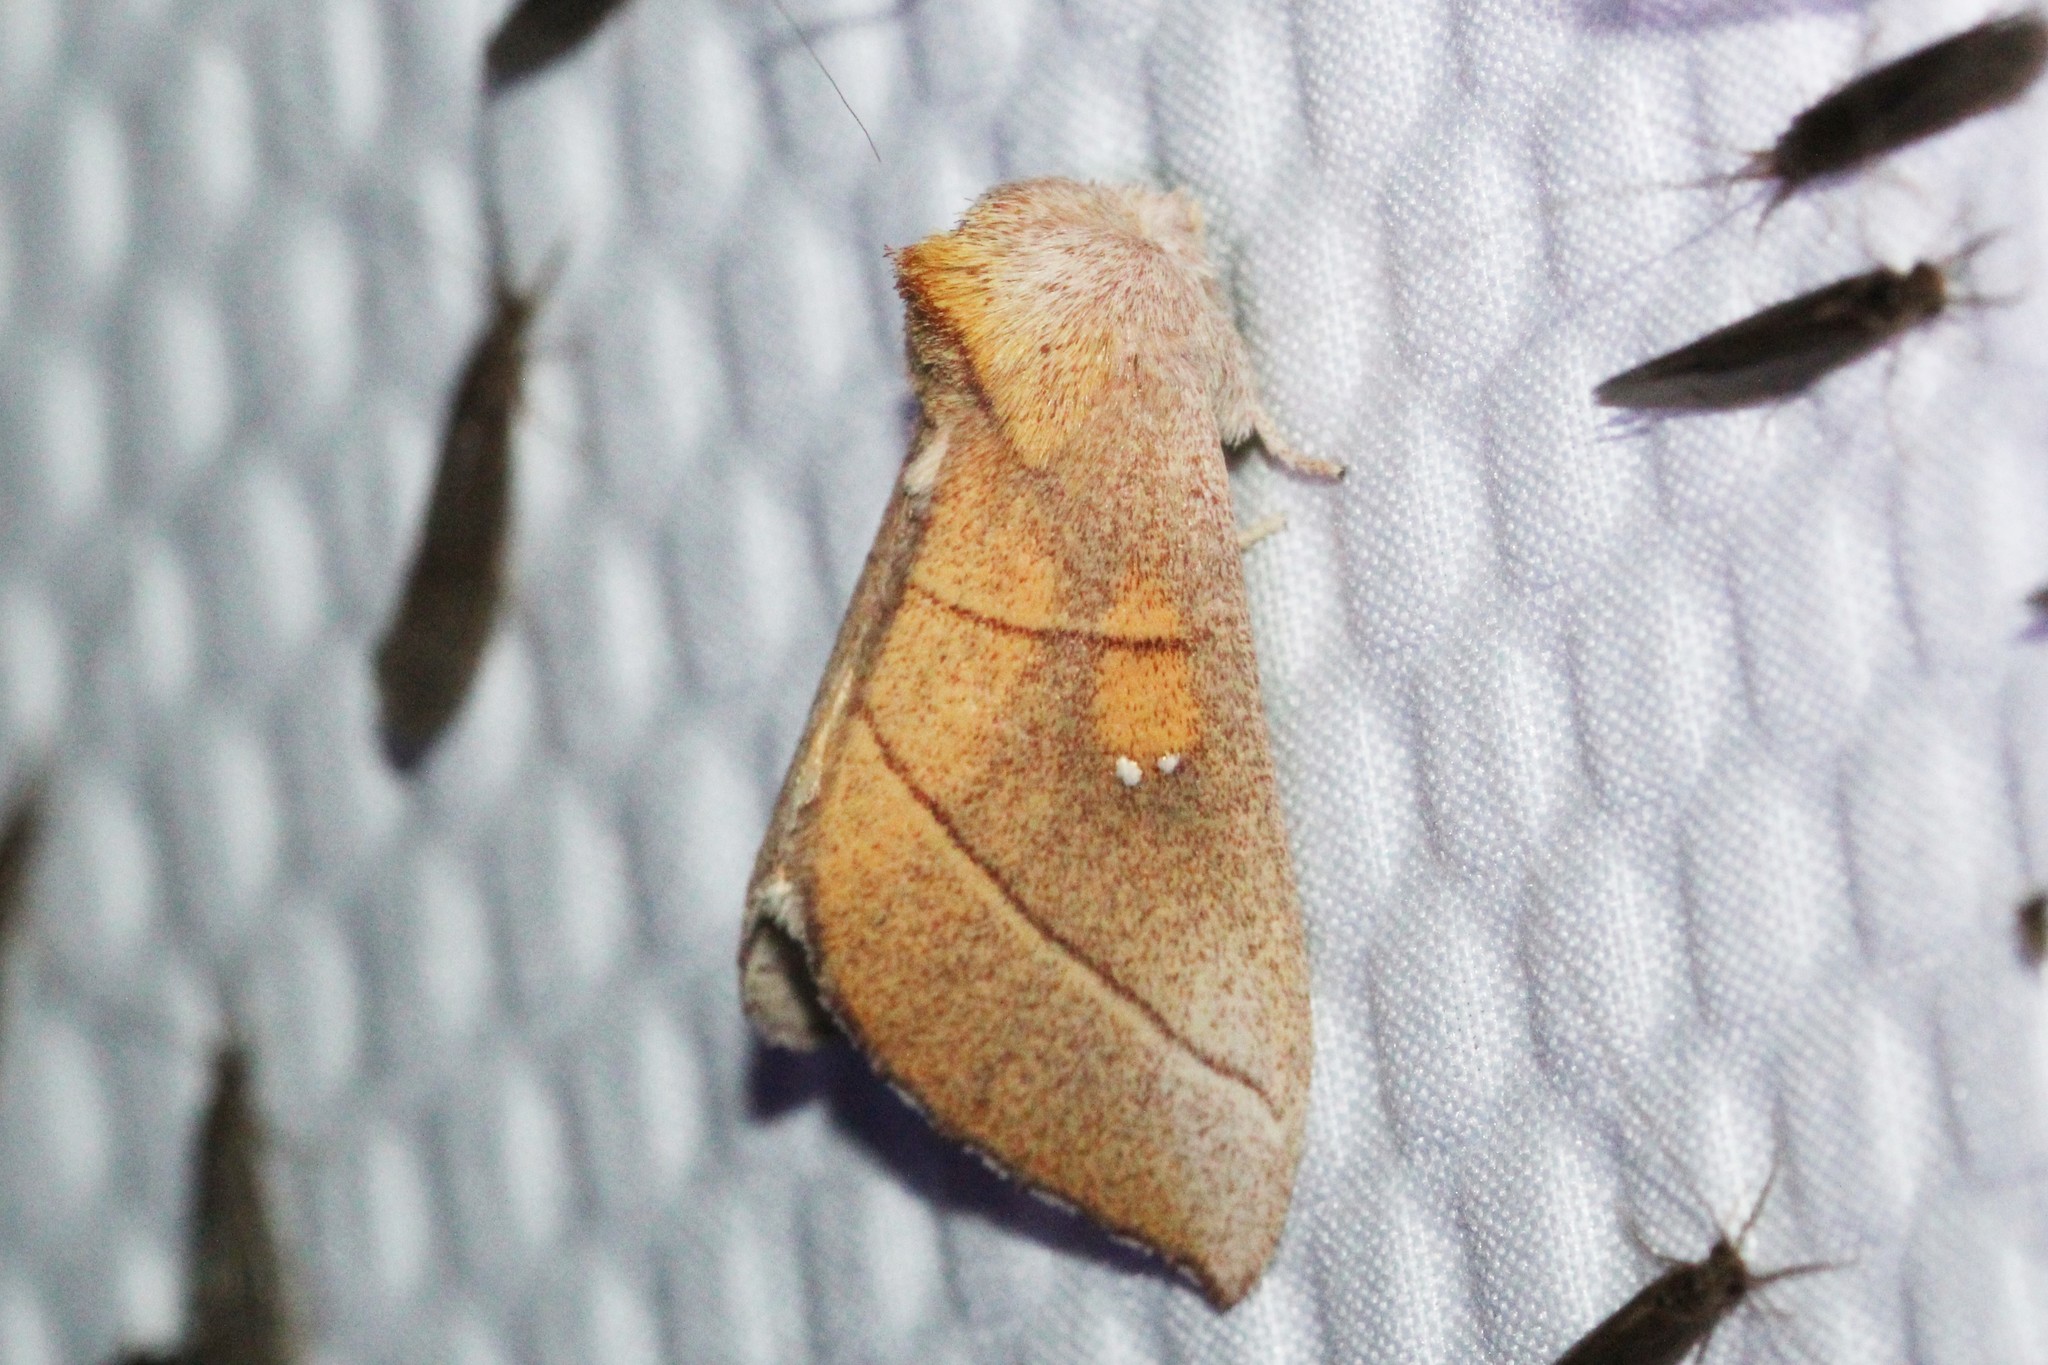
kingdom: Animalia
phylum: Arthropoda
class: Insecta
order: Lepidoptera
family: Notodontidae
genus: Nadata
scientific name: Nadata gibbosa
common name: White-dotted prominent
